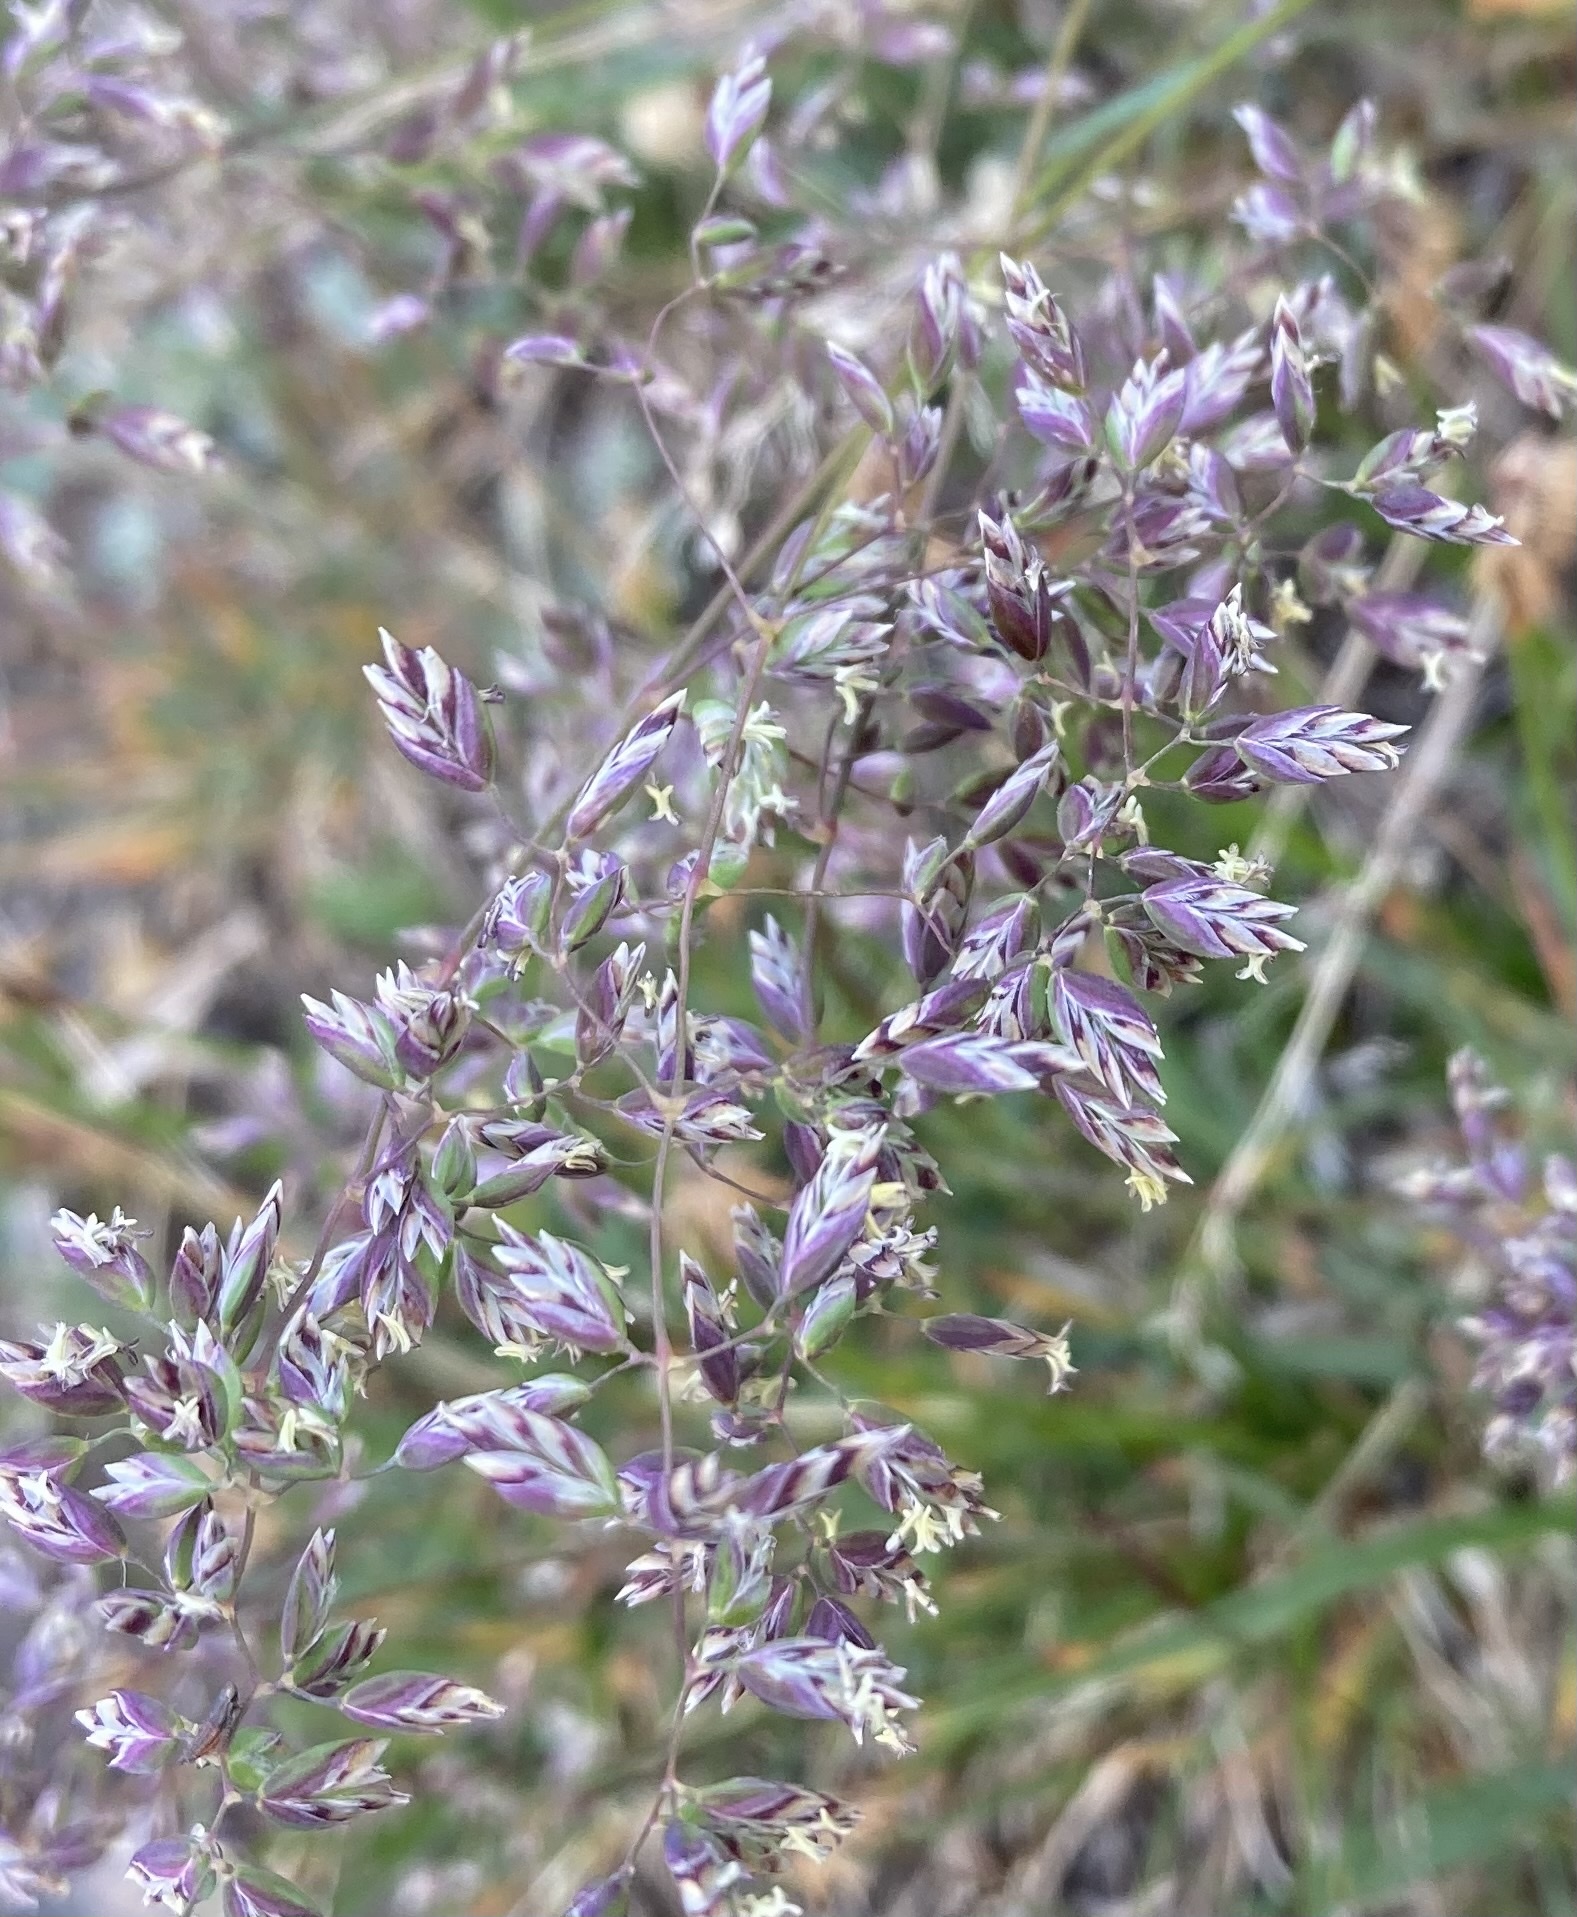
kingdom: Plantae
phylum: Tracheophyta
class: Liliopsida
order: Poales
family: Poaceae
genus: Poa
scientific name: Poa alpina
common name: Alpine bluegrass
